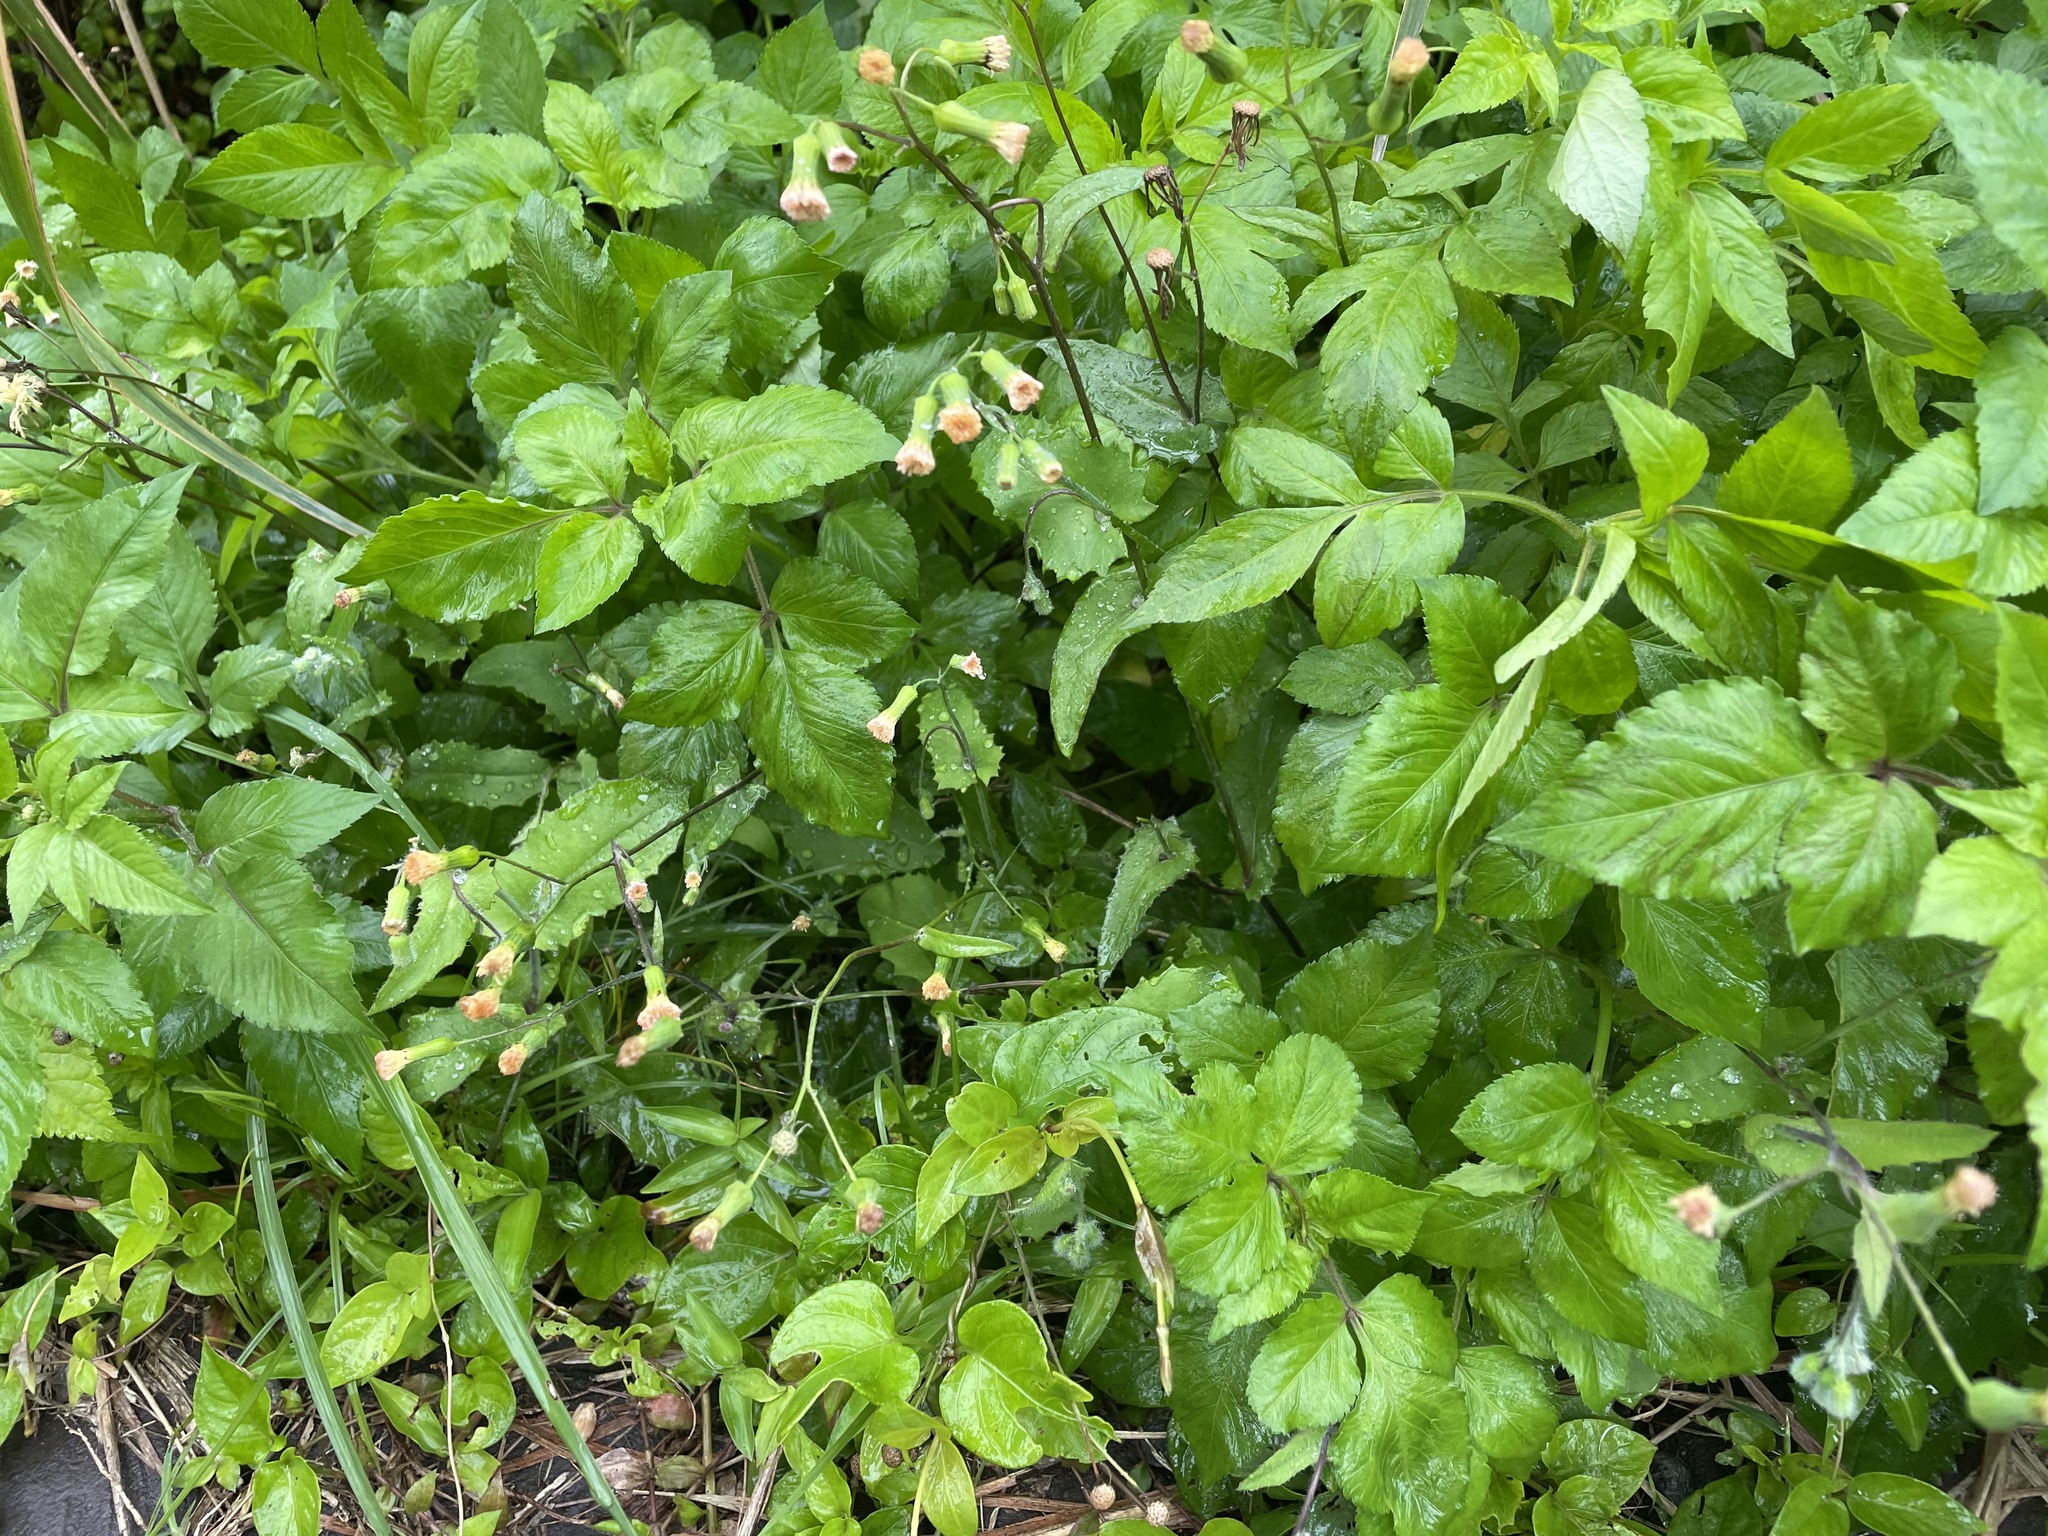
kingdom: Plantae
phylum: Tracheophyta
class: Magnoliopsida
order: Asterales
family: Asteraceae
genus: Emilia
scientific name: Emilia praetermissa
